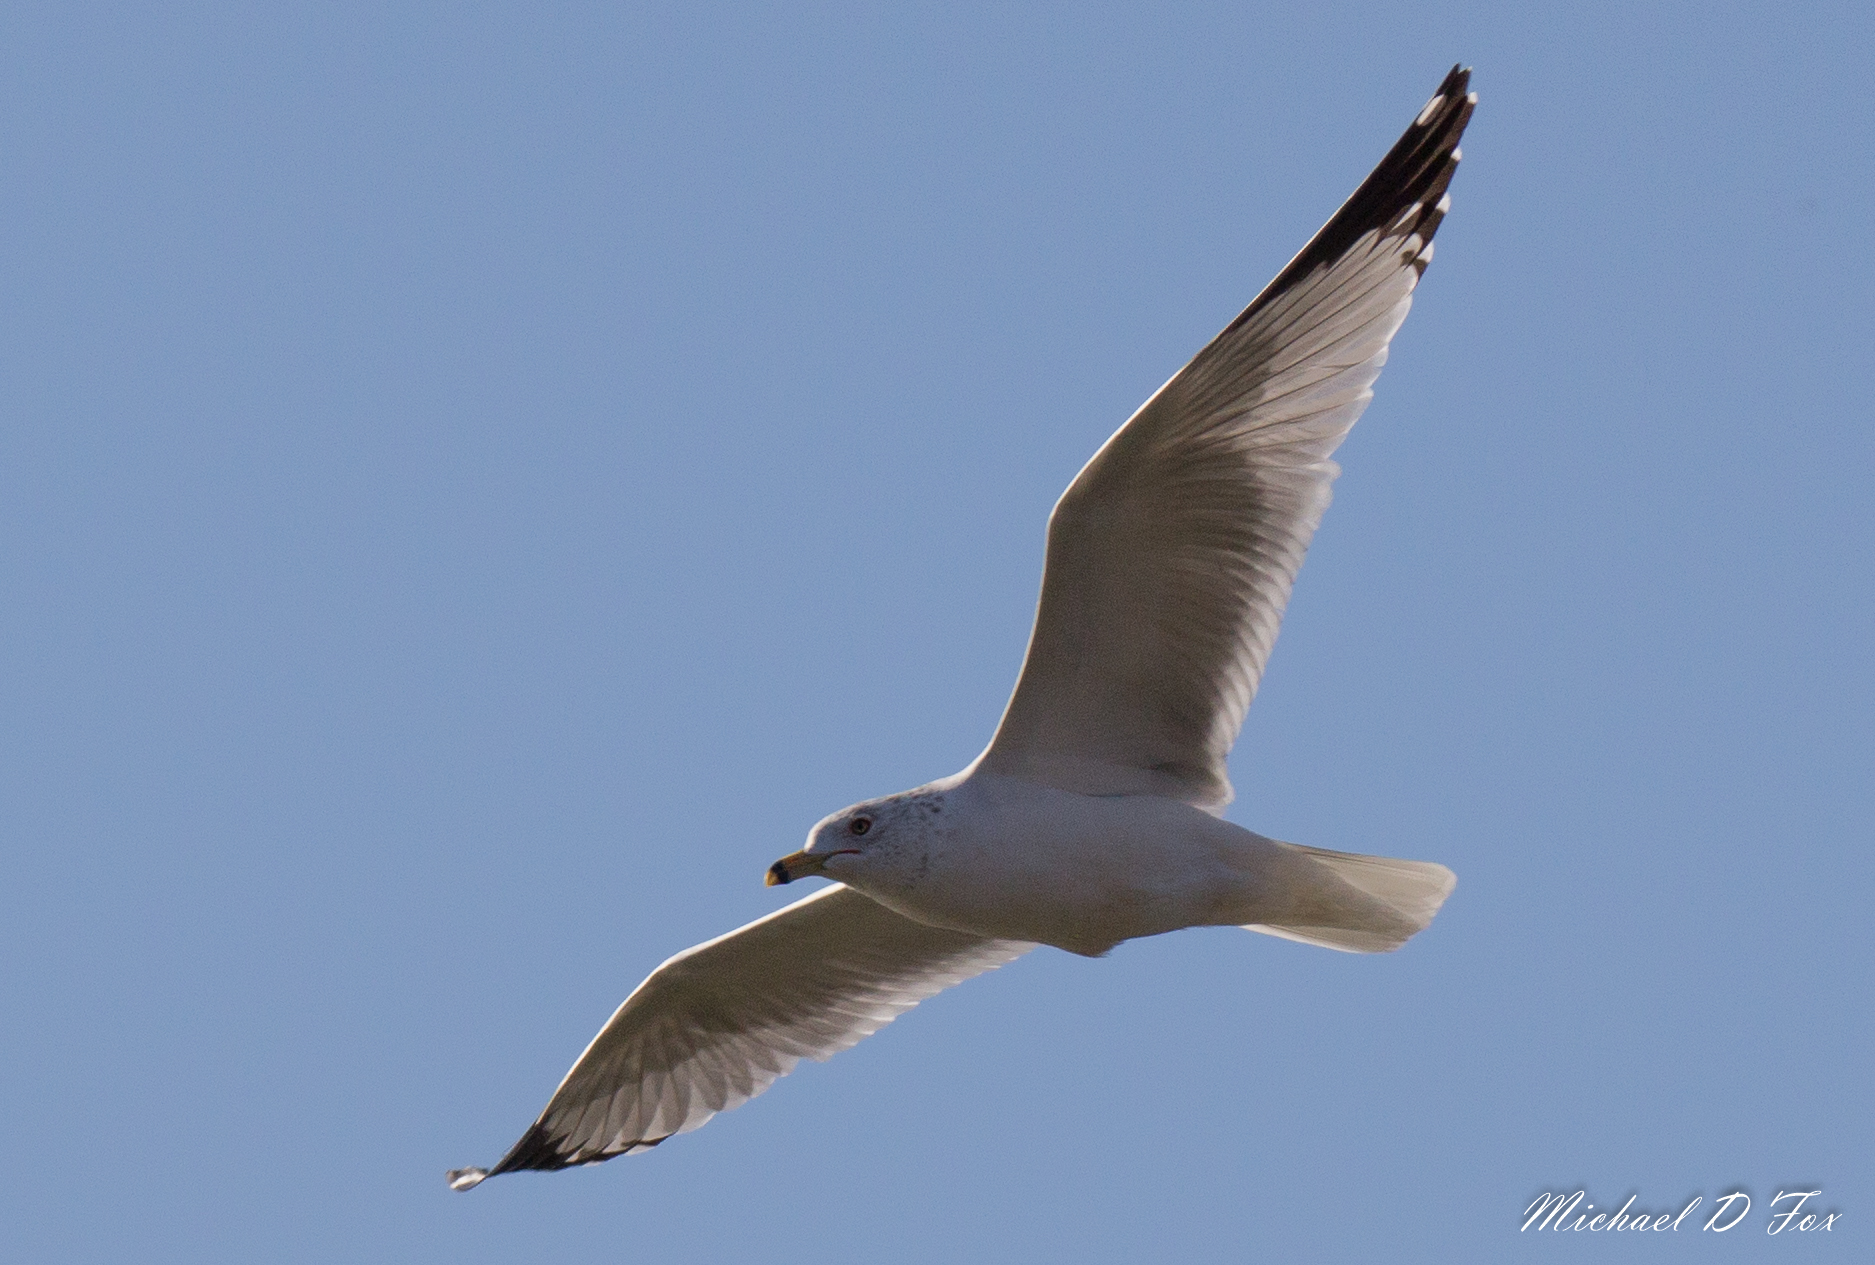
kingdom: Animalia
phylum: Chordata
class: Aves
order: Charadriiformes
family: Laridae
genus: Larus
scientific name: Larus delawarensis
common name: Ring-billed gull
